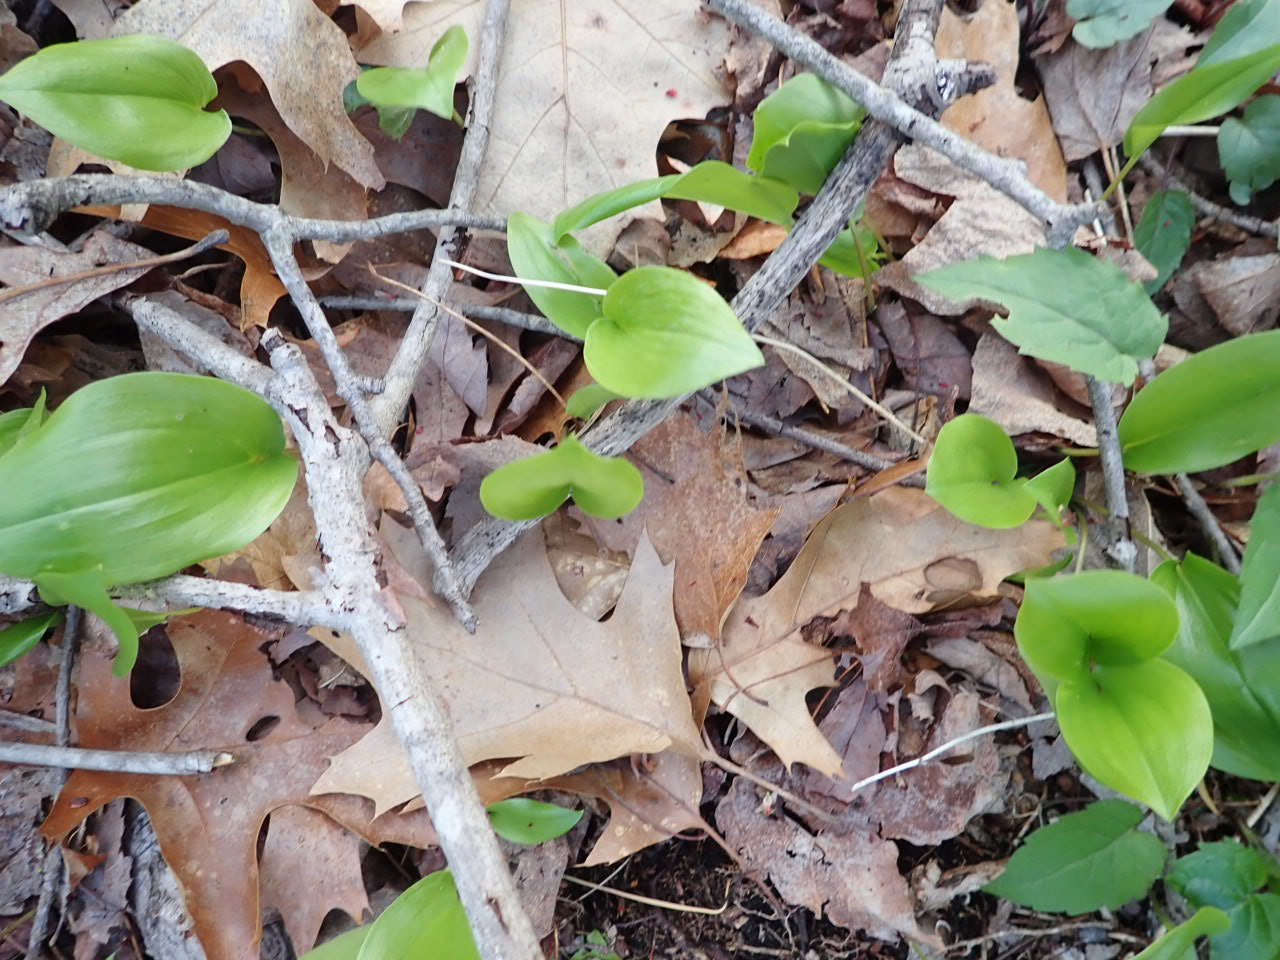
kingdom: Plantae
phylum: Tracheophyta
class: Liliopsida
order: Asparagales
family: Asparagaceae
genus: Maianthemum
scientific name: Maianthemum canadense
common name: False lily-of-the-valley
